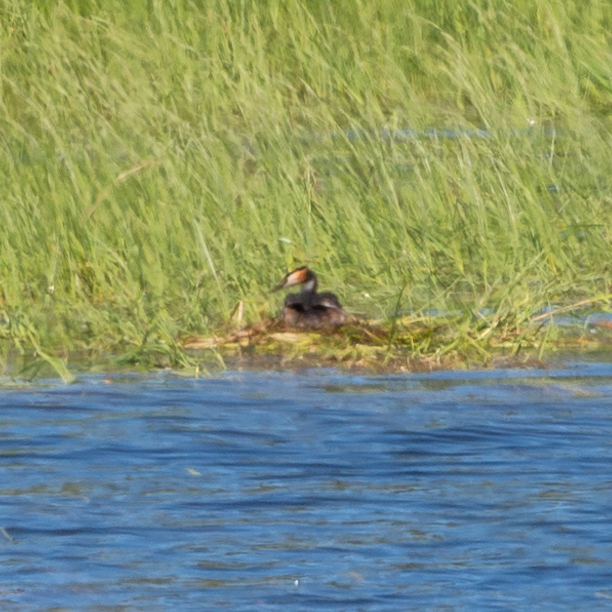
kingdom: Animalia
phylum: Chordata
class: Aves
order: Podicipediformes
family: Podicipedidae
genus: Podiceps
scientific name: Podiceps cristatus
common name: Great crested grebe
